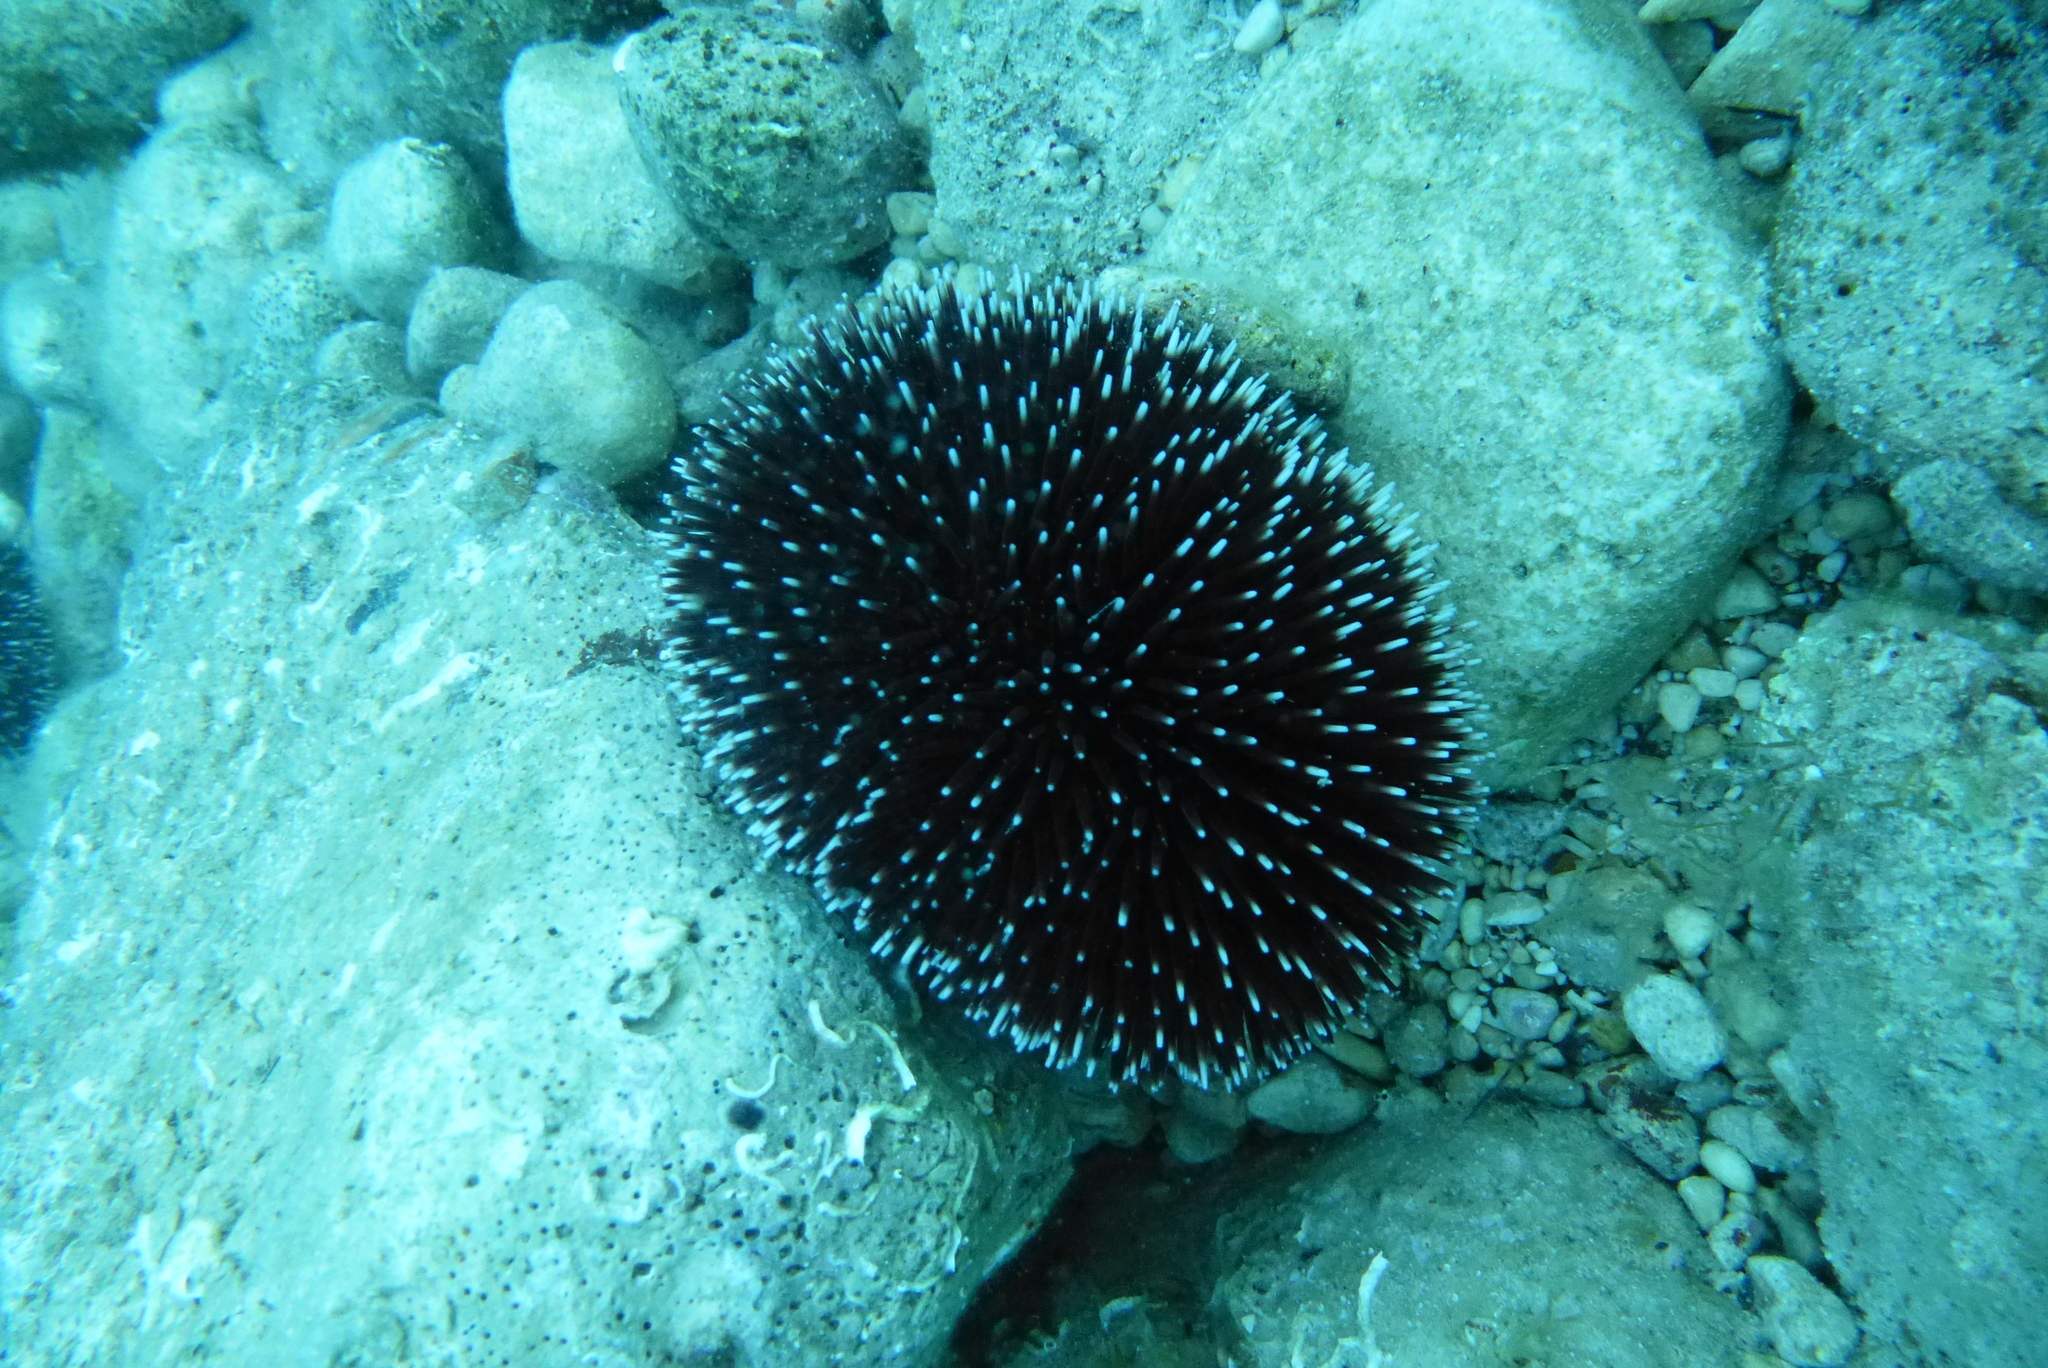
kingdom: Animalia
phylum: Echinodermata
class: Echinoidea
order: Camarodonta
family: Toxopneustidae
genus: Sphaerechinus
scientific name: Sphaerechinus granularis
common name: Violet sea urchin
